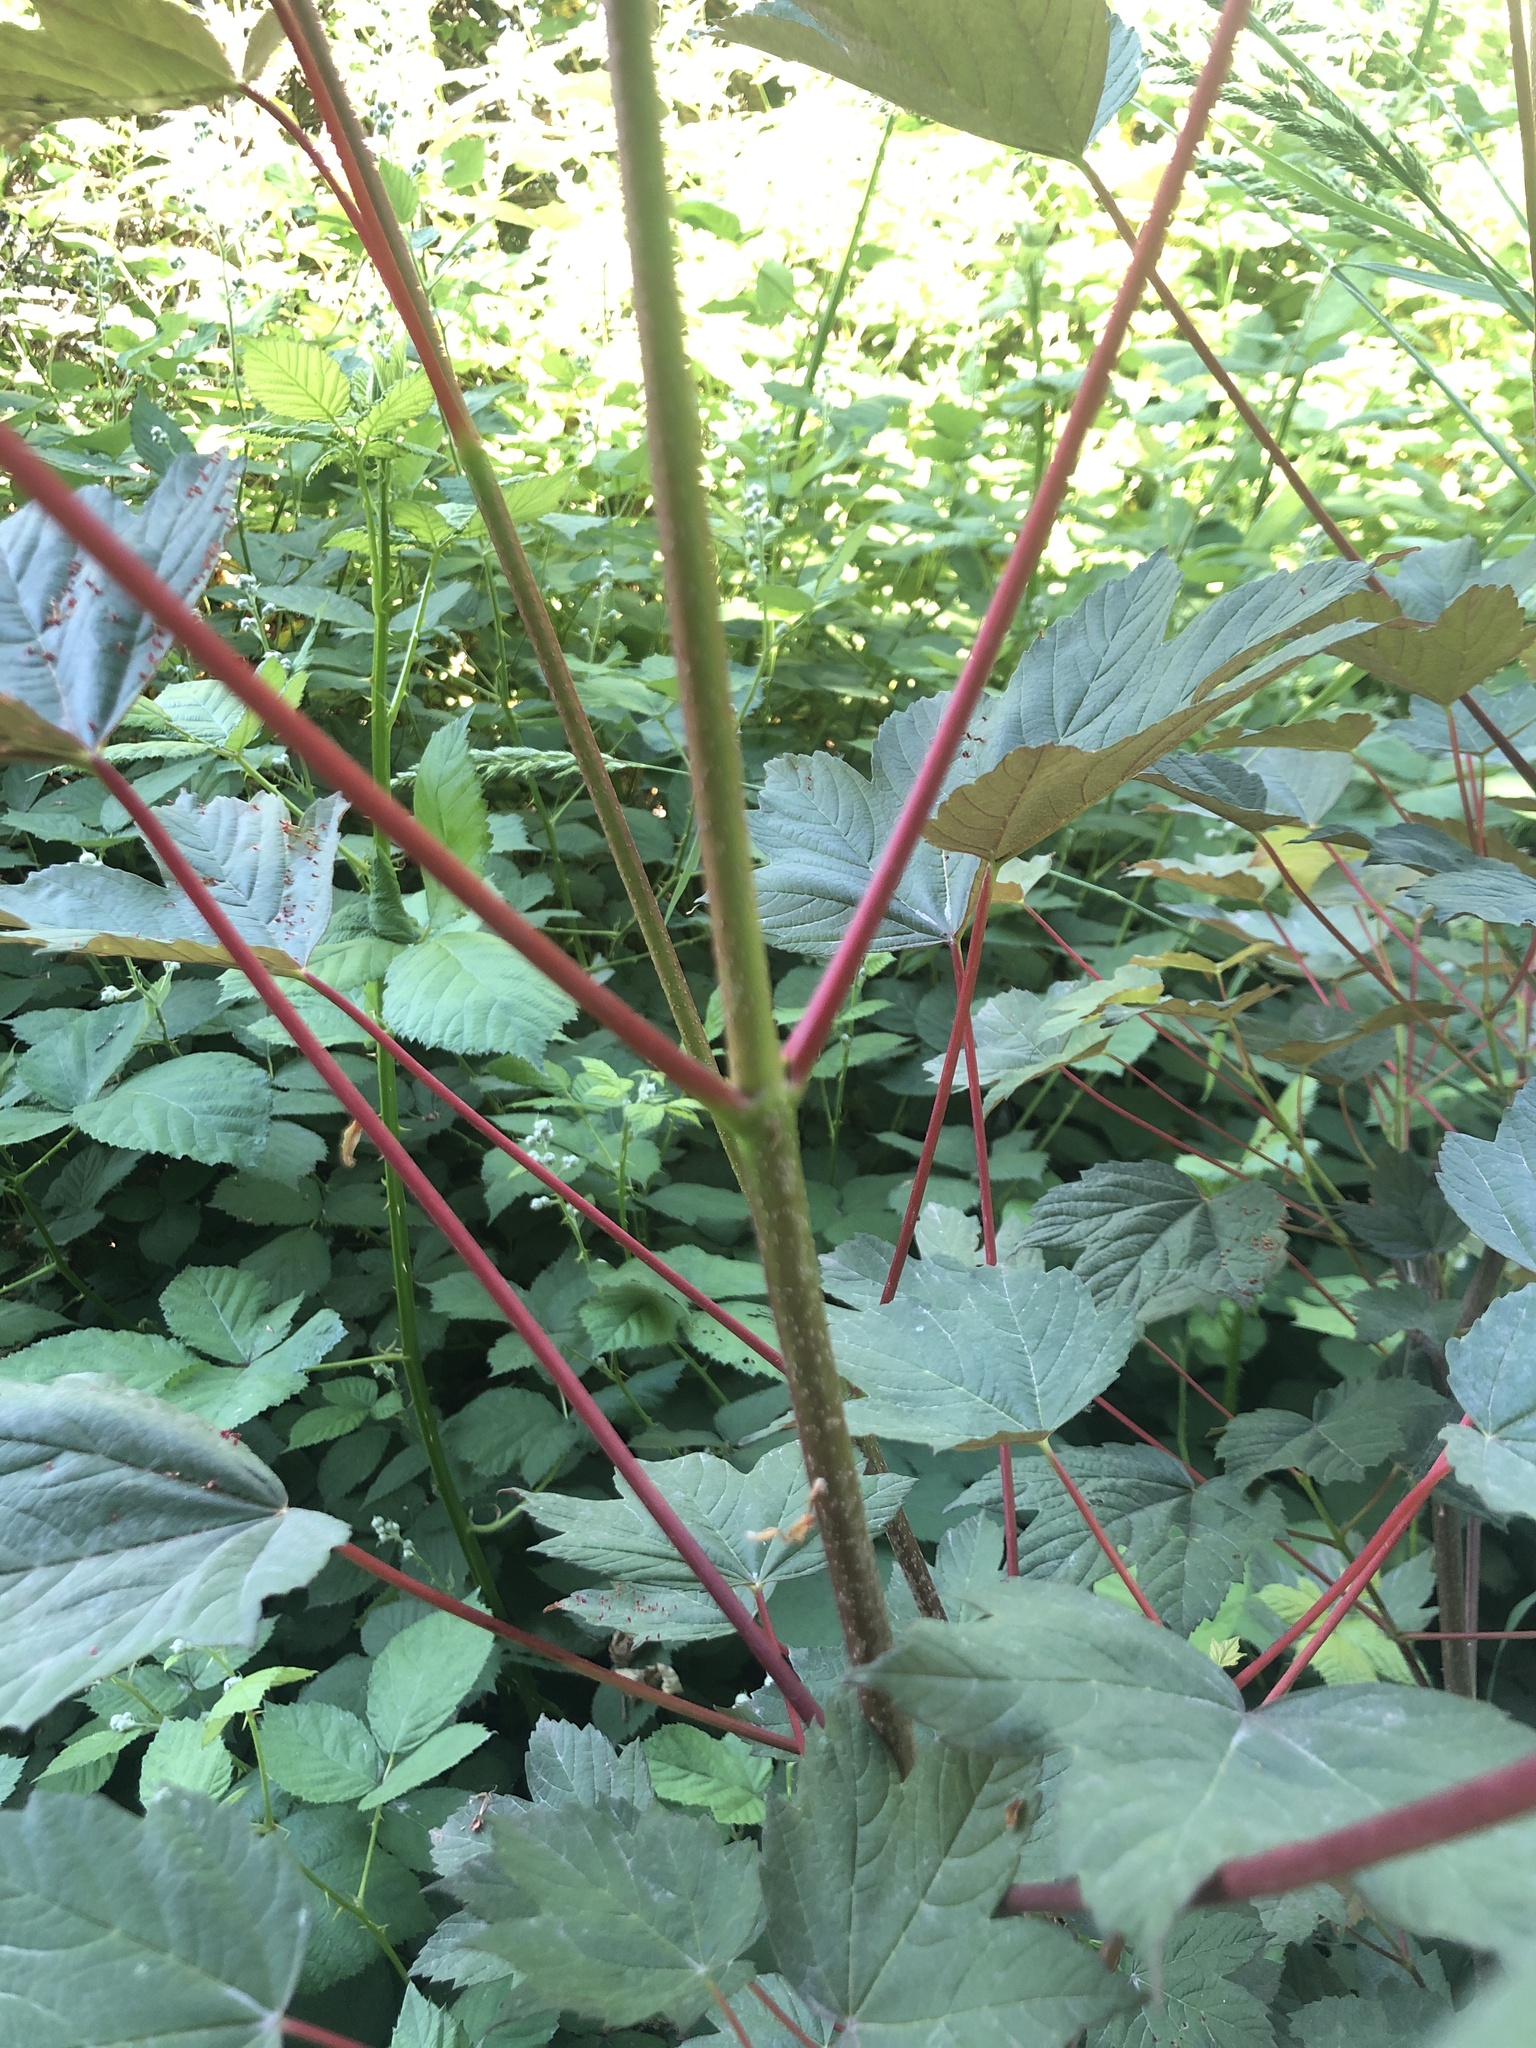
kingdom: Plantae
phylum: Tracheophyta
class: Magnoliopsida
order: Sapindales
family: Sapindaceae
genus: Acer
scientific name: Acer pseudoplatanus
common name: Sycamore
